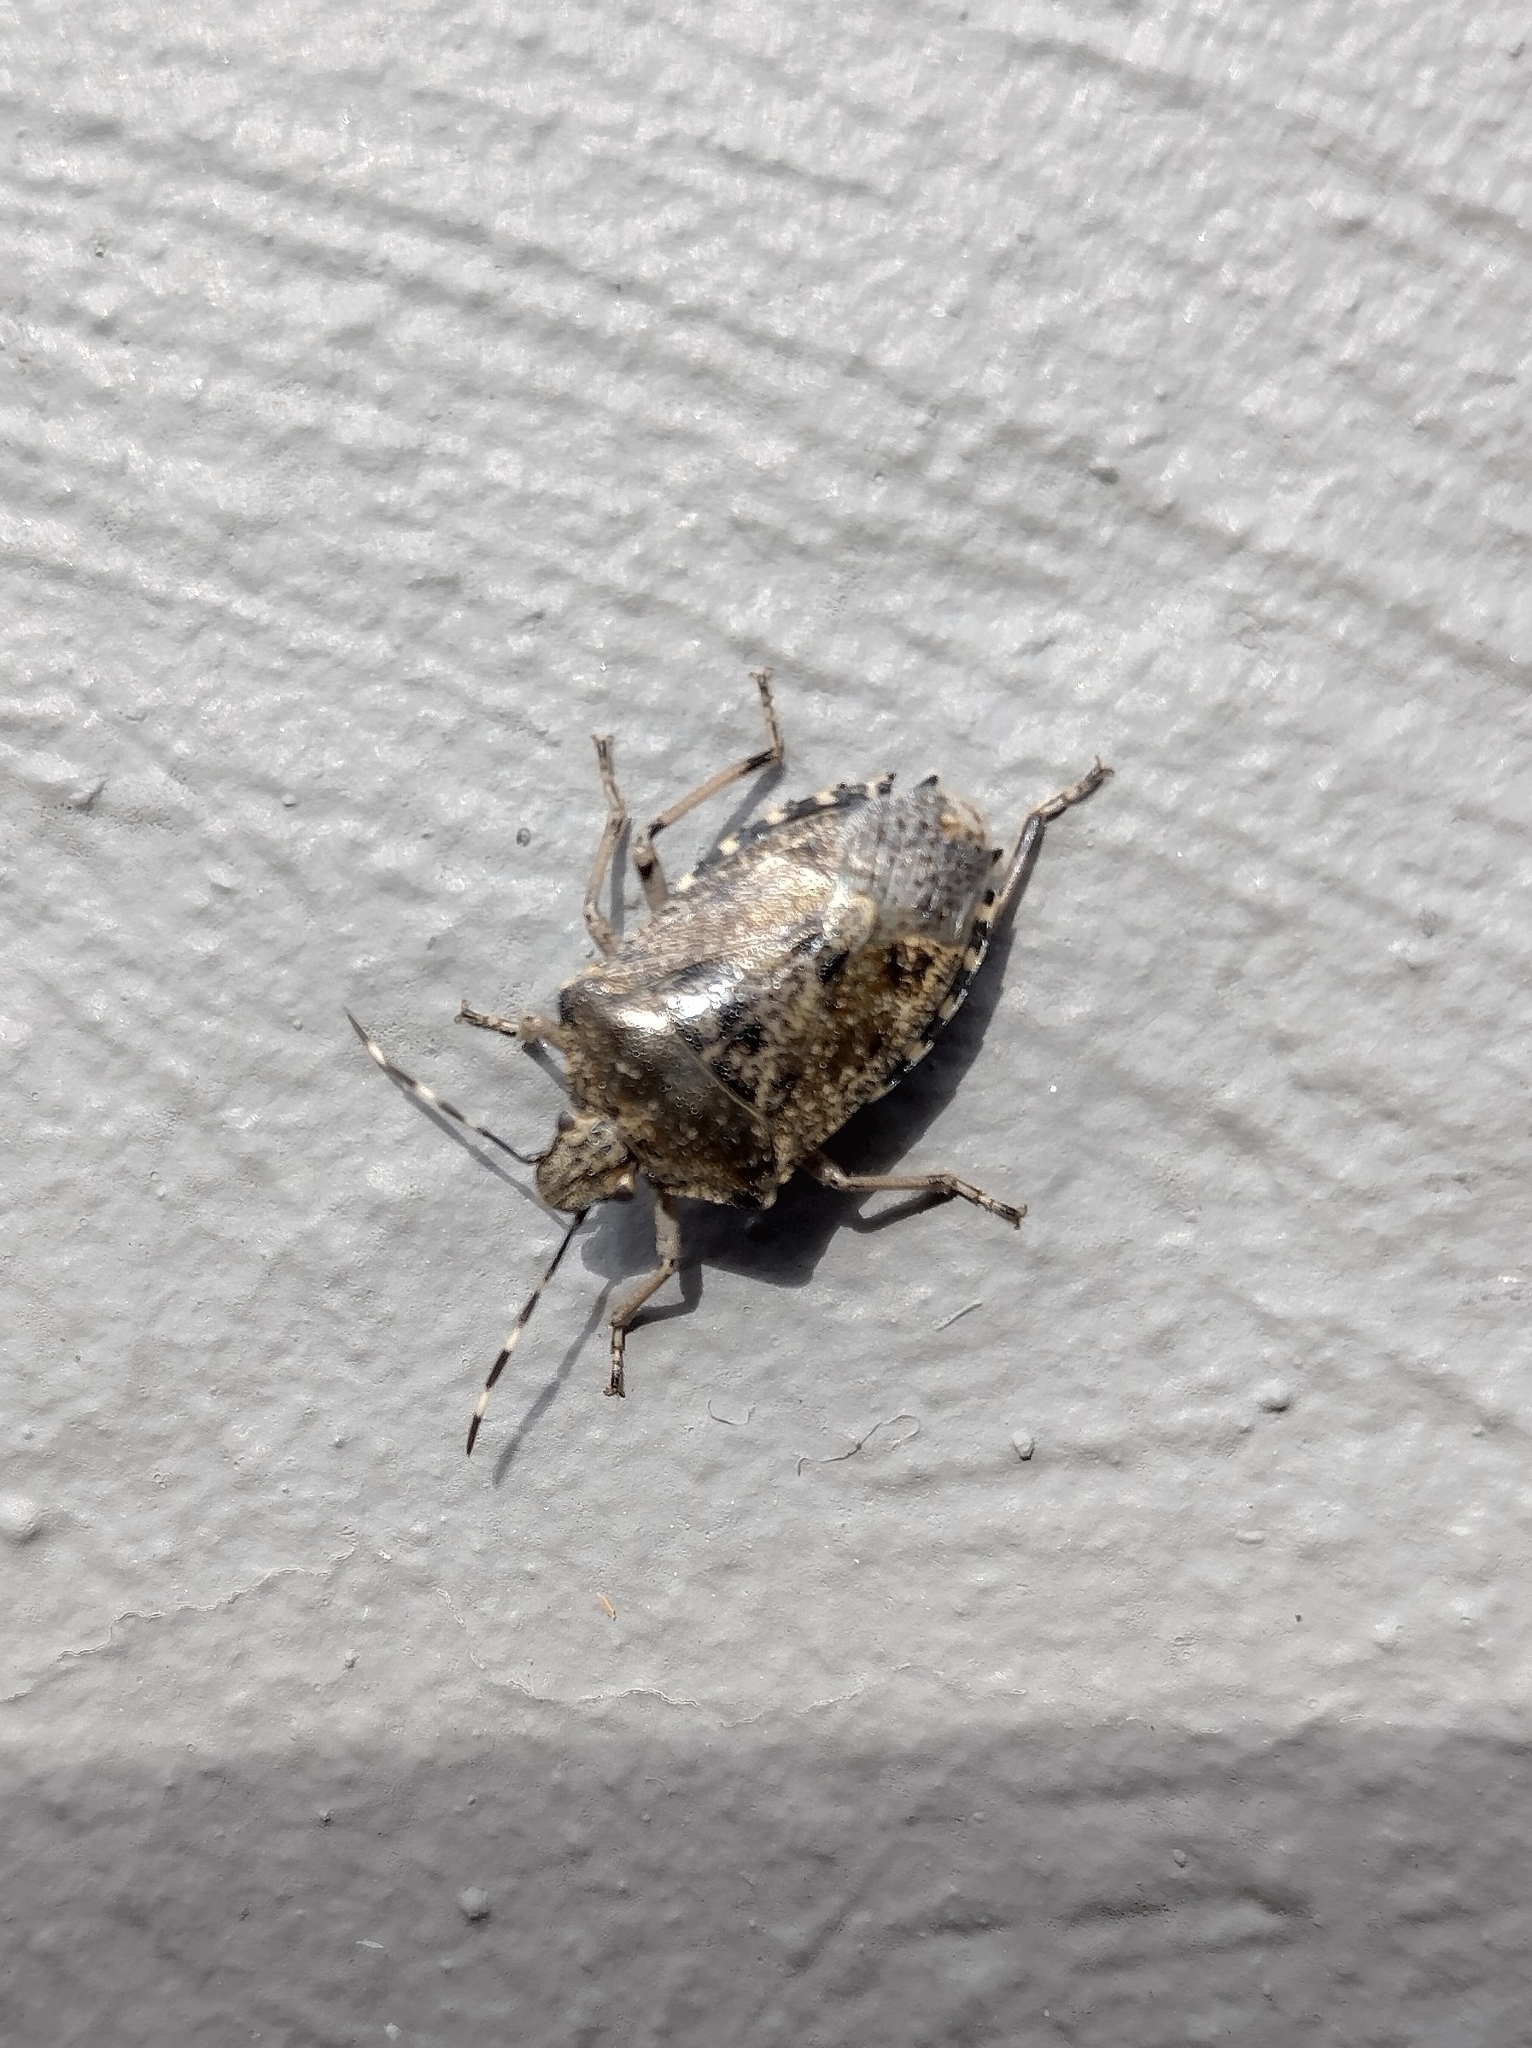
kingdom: Animalia
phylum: Arthropoda
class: Insecta
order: Hemiptera
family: Pentatomidae
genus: Rhaphigaster
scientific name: Rhaphigaster nebulosa
